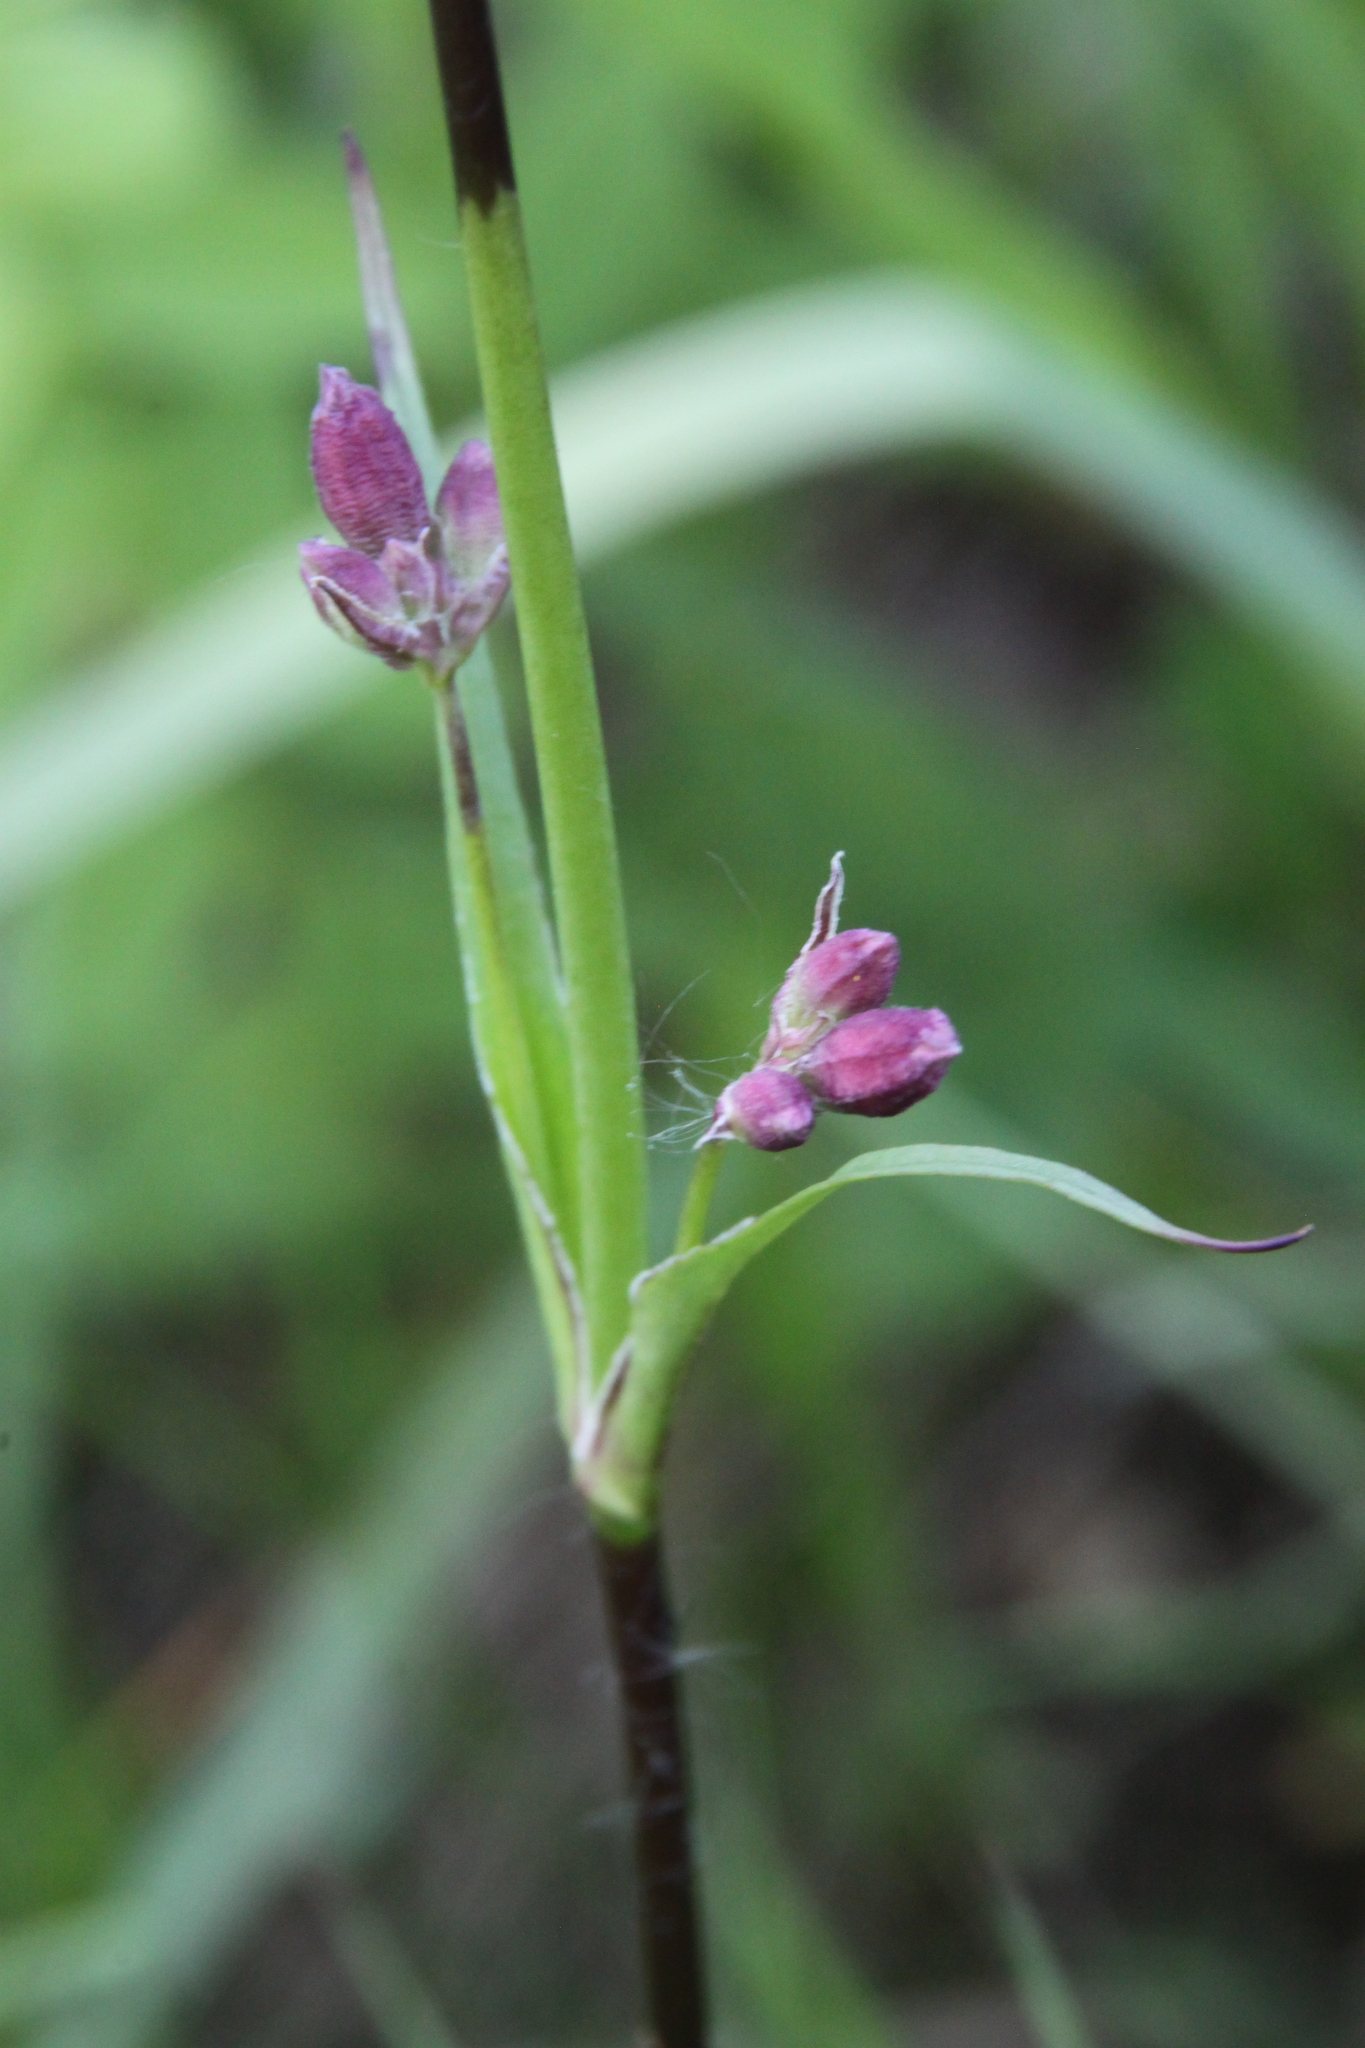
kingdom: Plantae
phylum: Tracheophyta
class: Magnoliopsida
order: Caryophyllales
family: Caryophyllaceae
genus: Viscaria
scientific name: Viscaria vulgaris
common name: Clammy campion
